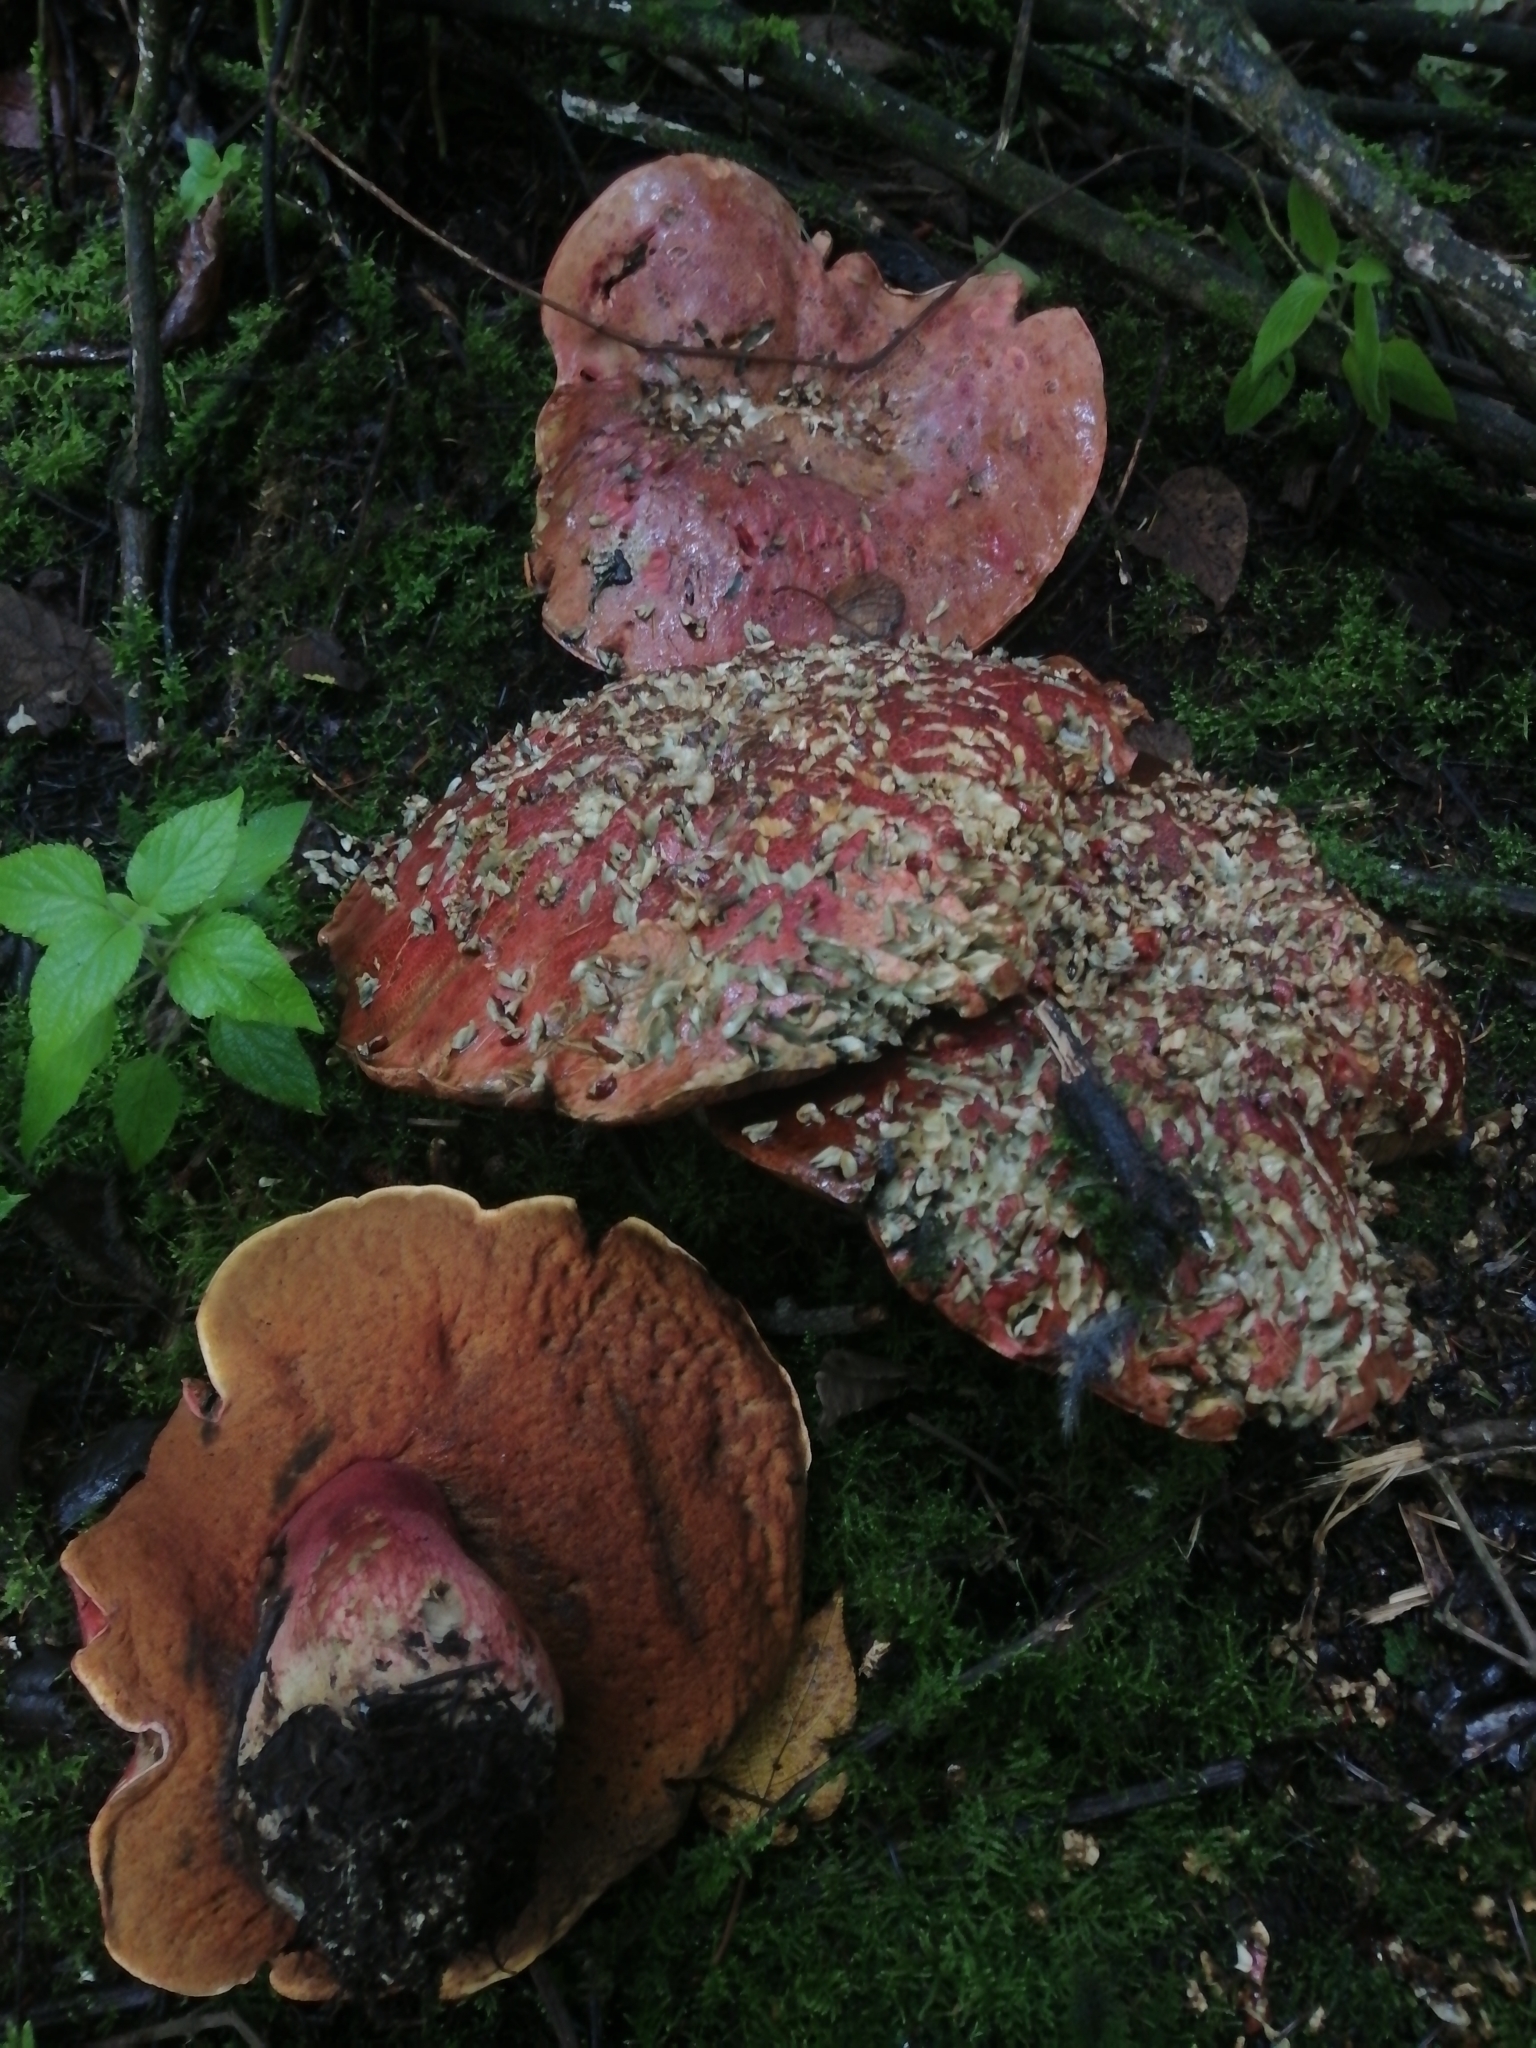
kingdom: Fungi
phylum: Basidiomycota
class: Agaricomycetes
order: Boletales
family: Boletaceae
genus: Boletus
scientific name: Boletus michoacanus
